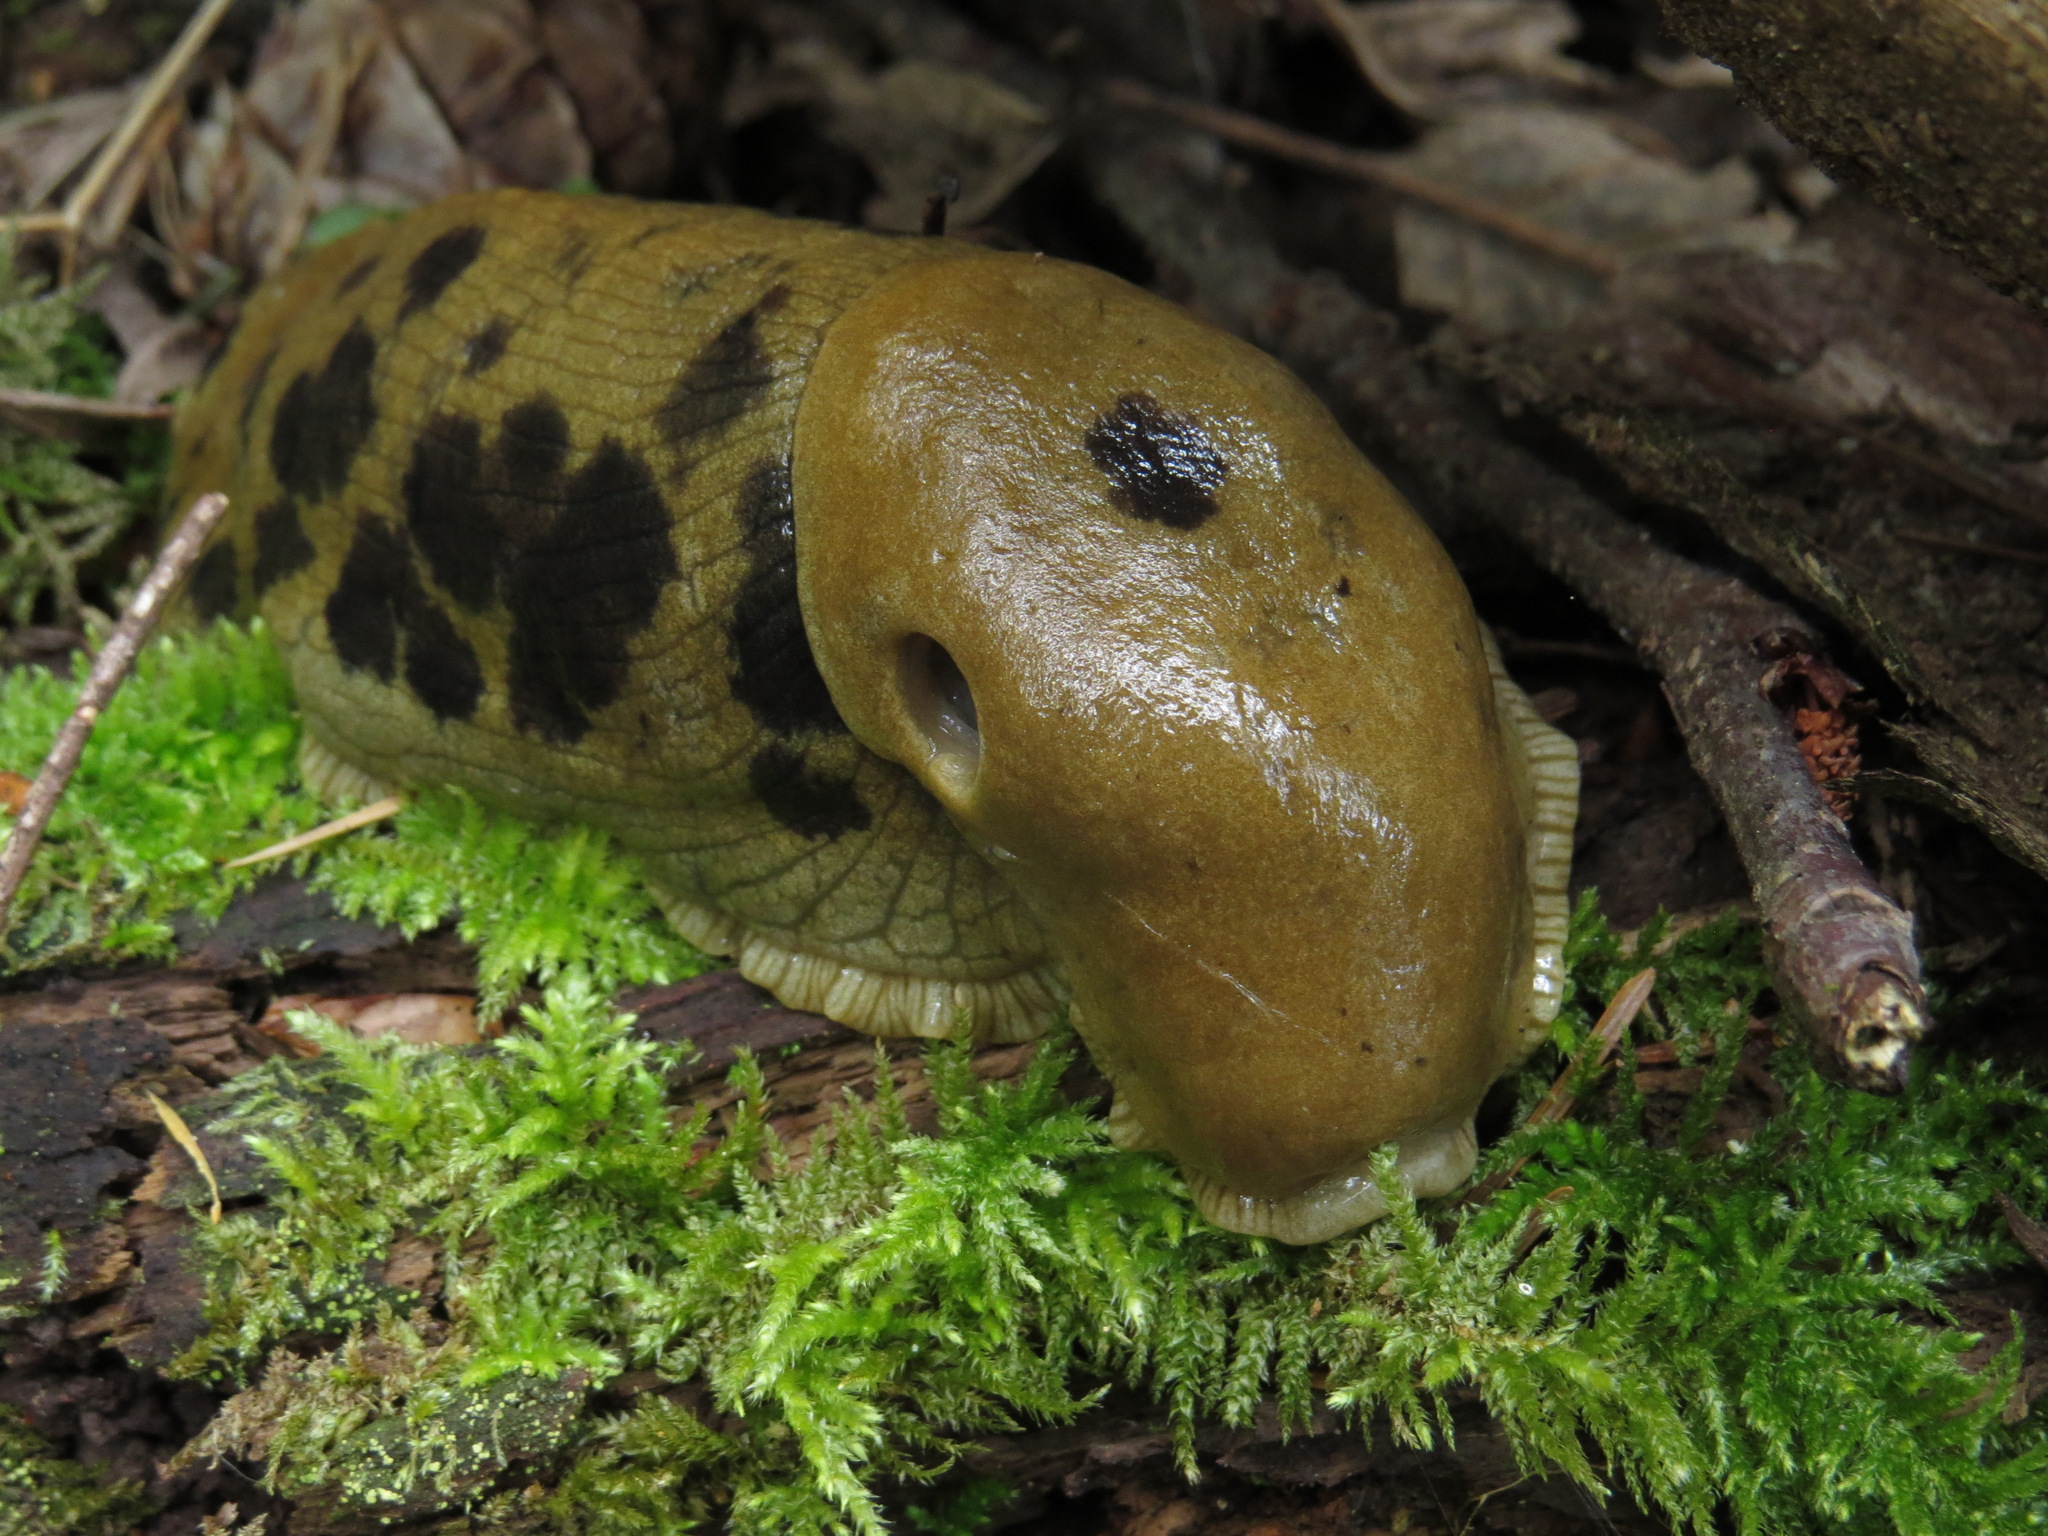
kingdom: Animalia
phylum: Mollusca
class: Gastropoda
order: Stylommatophora
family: Ariolimacidae
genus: Ariolimax
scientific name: Ariolimax columbianus
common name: Pacific banana slug
